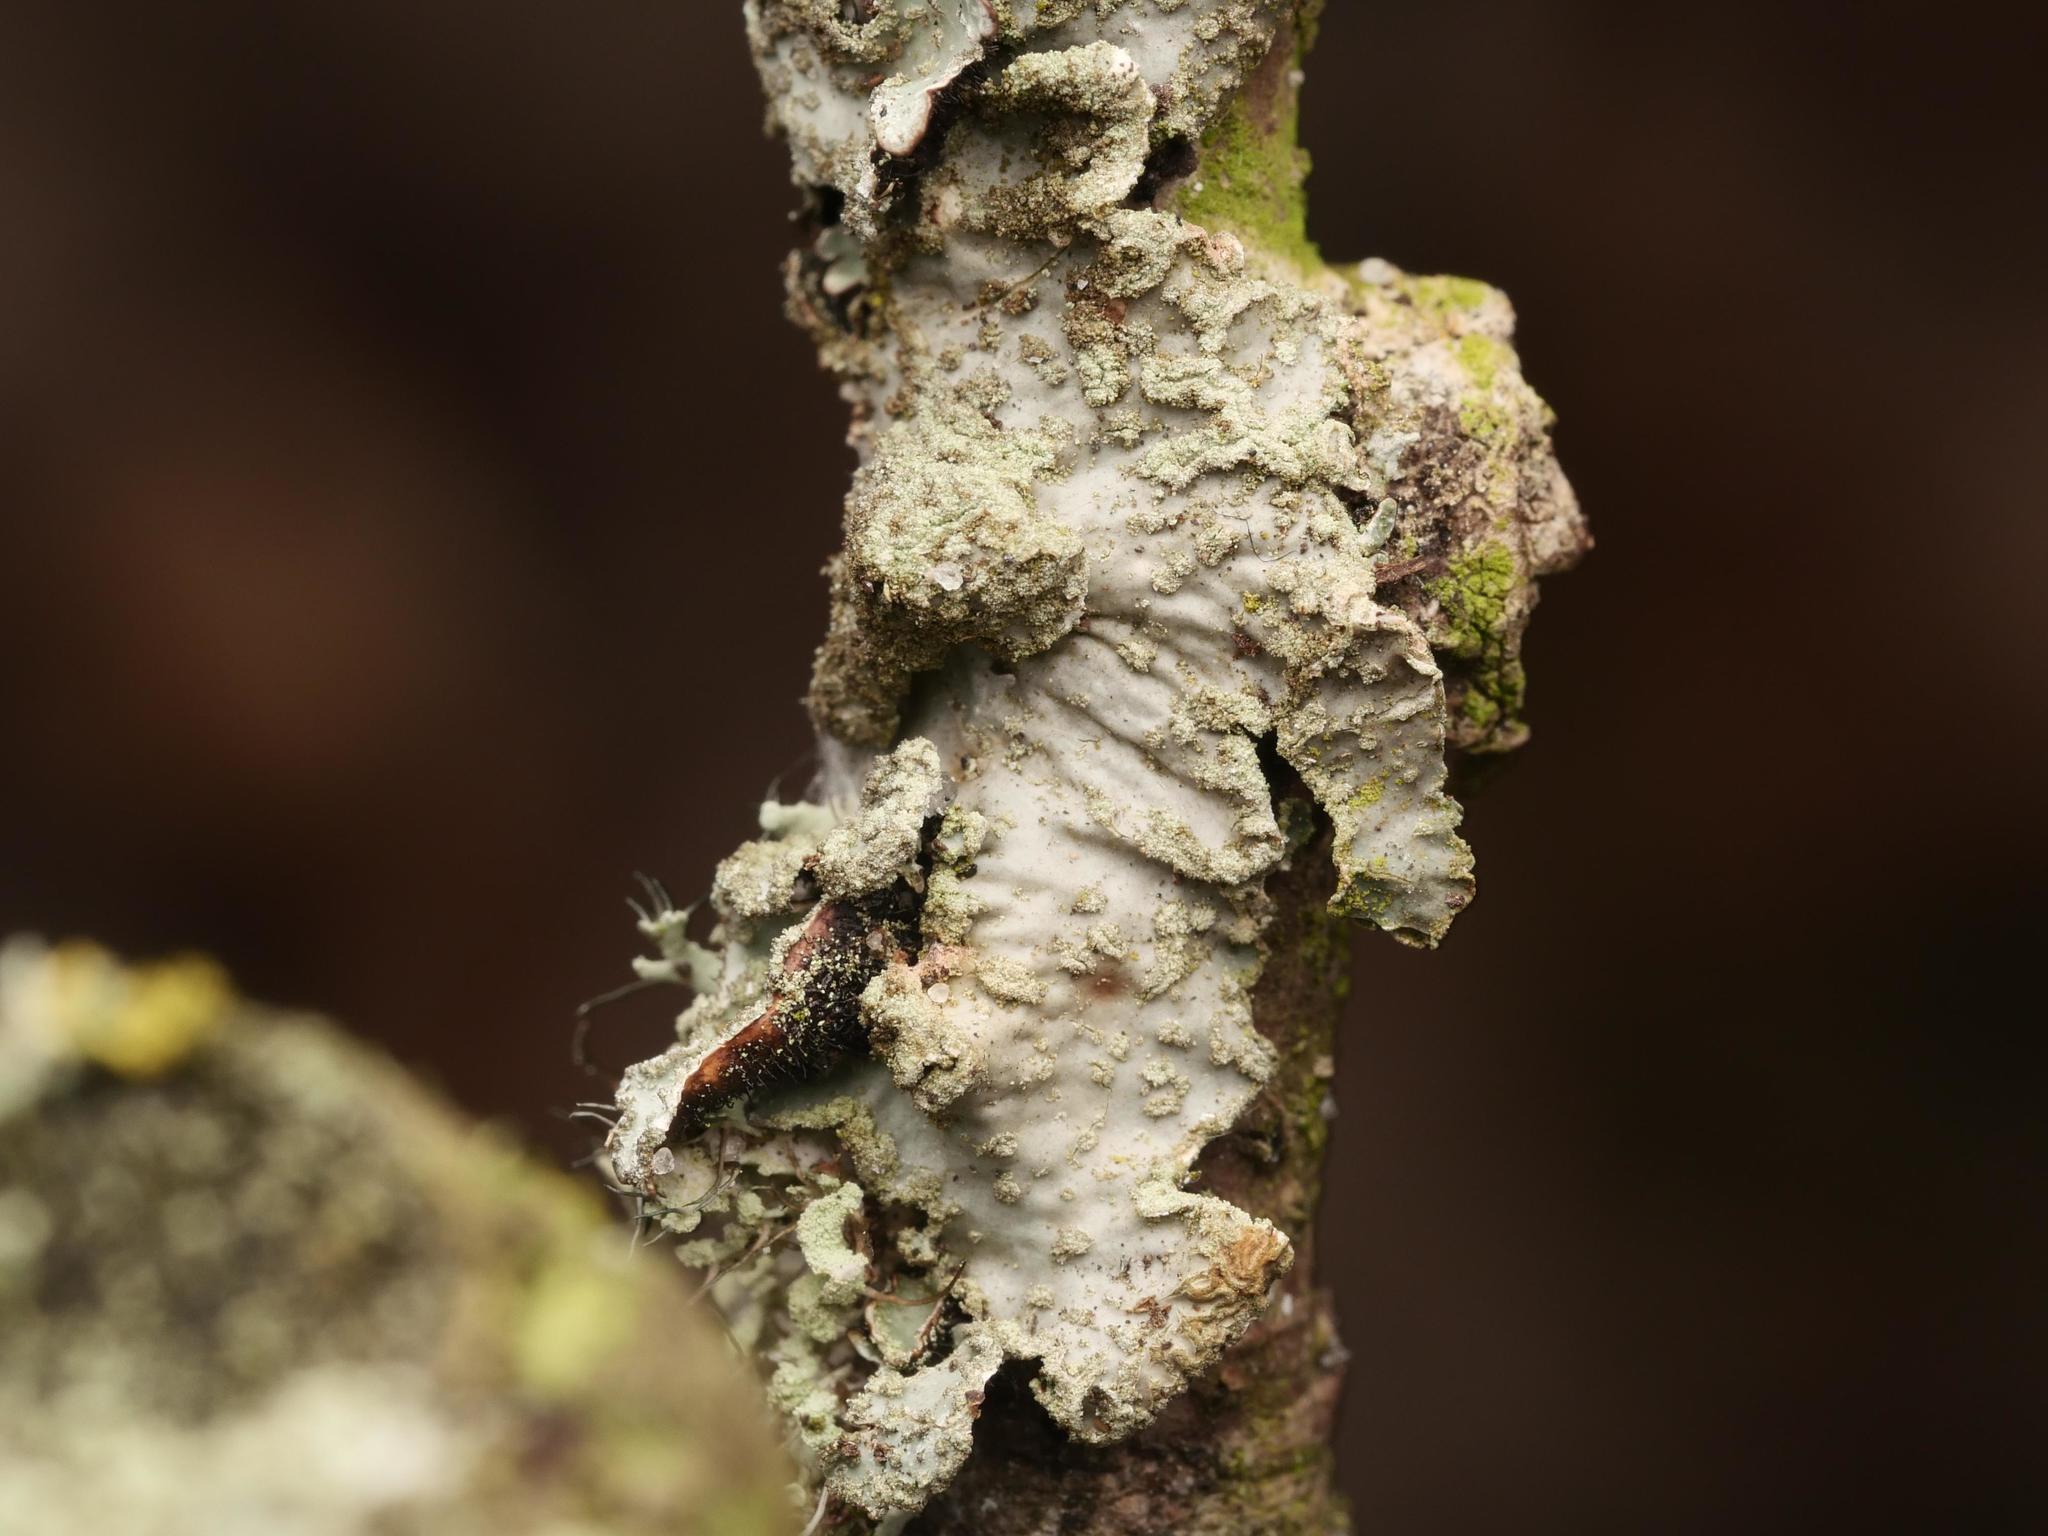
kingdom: Fungi
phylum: Ascomycota
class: Lecanoromycetes
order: Lecanorales
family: Parmeliaceae
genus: Parmelia
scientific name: Parmelia sulcata
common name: Netted shield lichen
